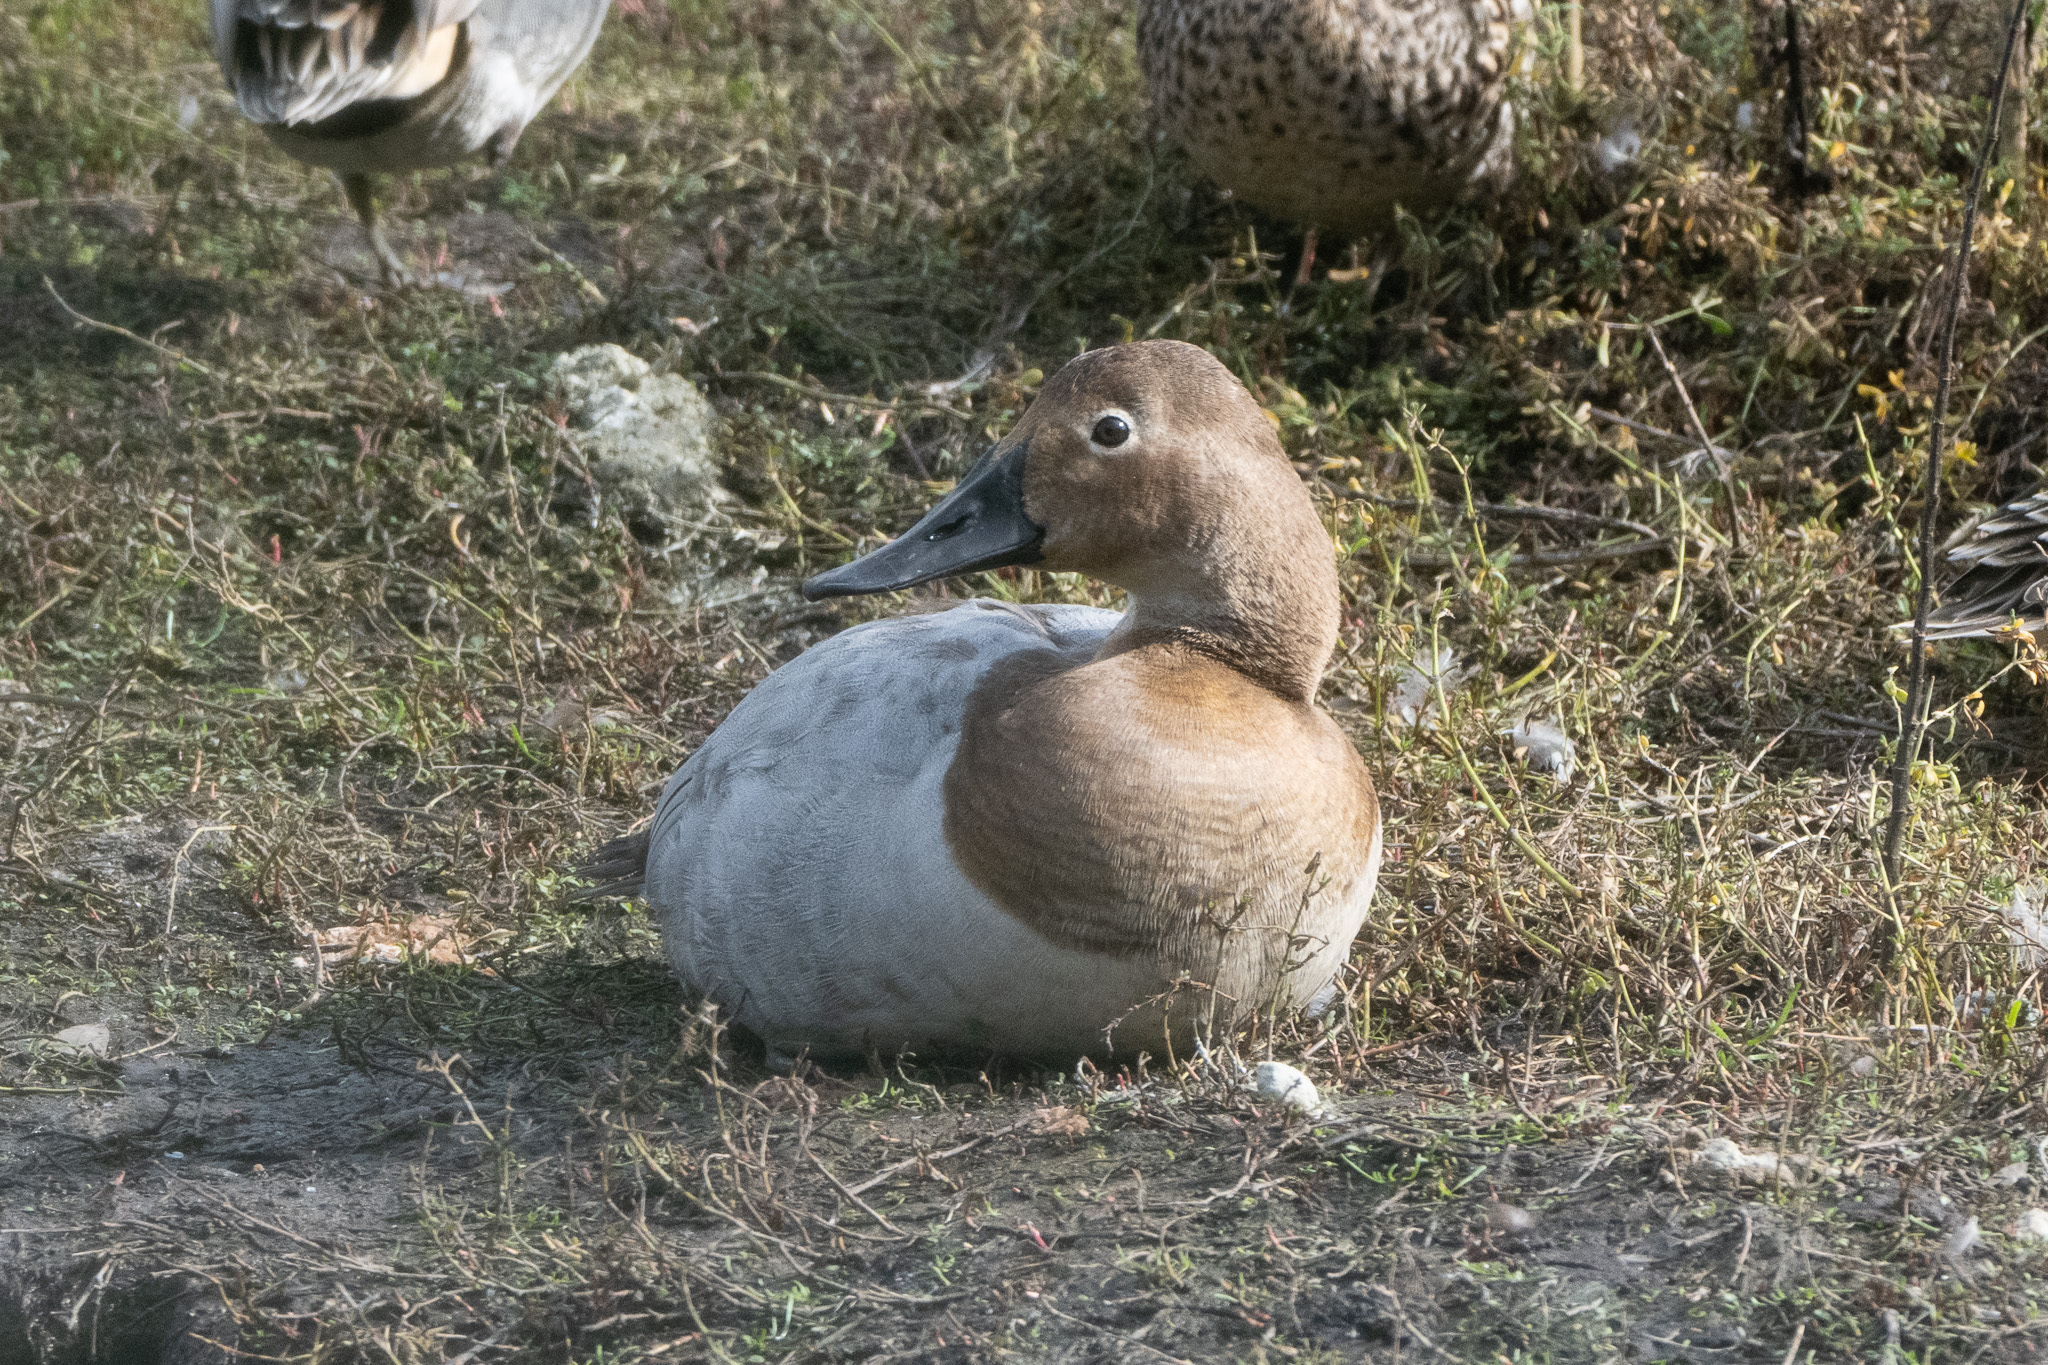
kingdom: Animalia
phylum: Chordata
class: Aves
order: Anseriformes
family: Anatidae
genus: Aythya
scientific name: Aythya valisineria
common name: Canvasback
